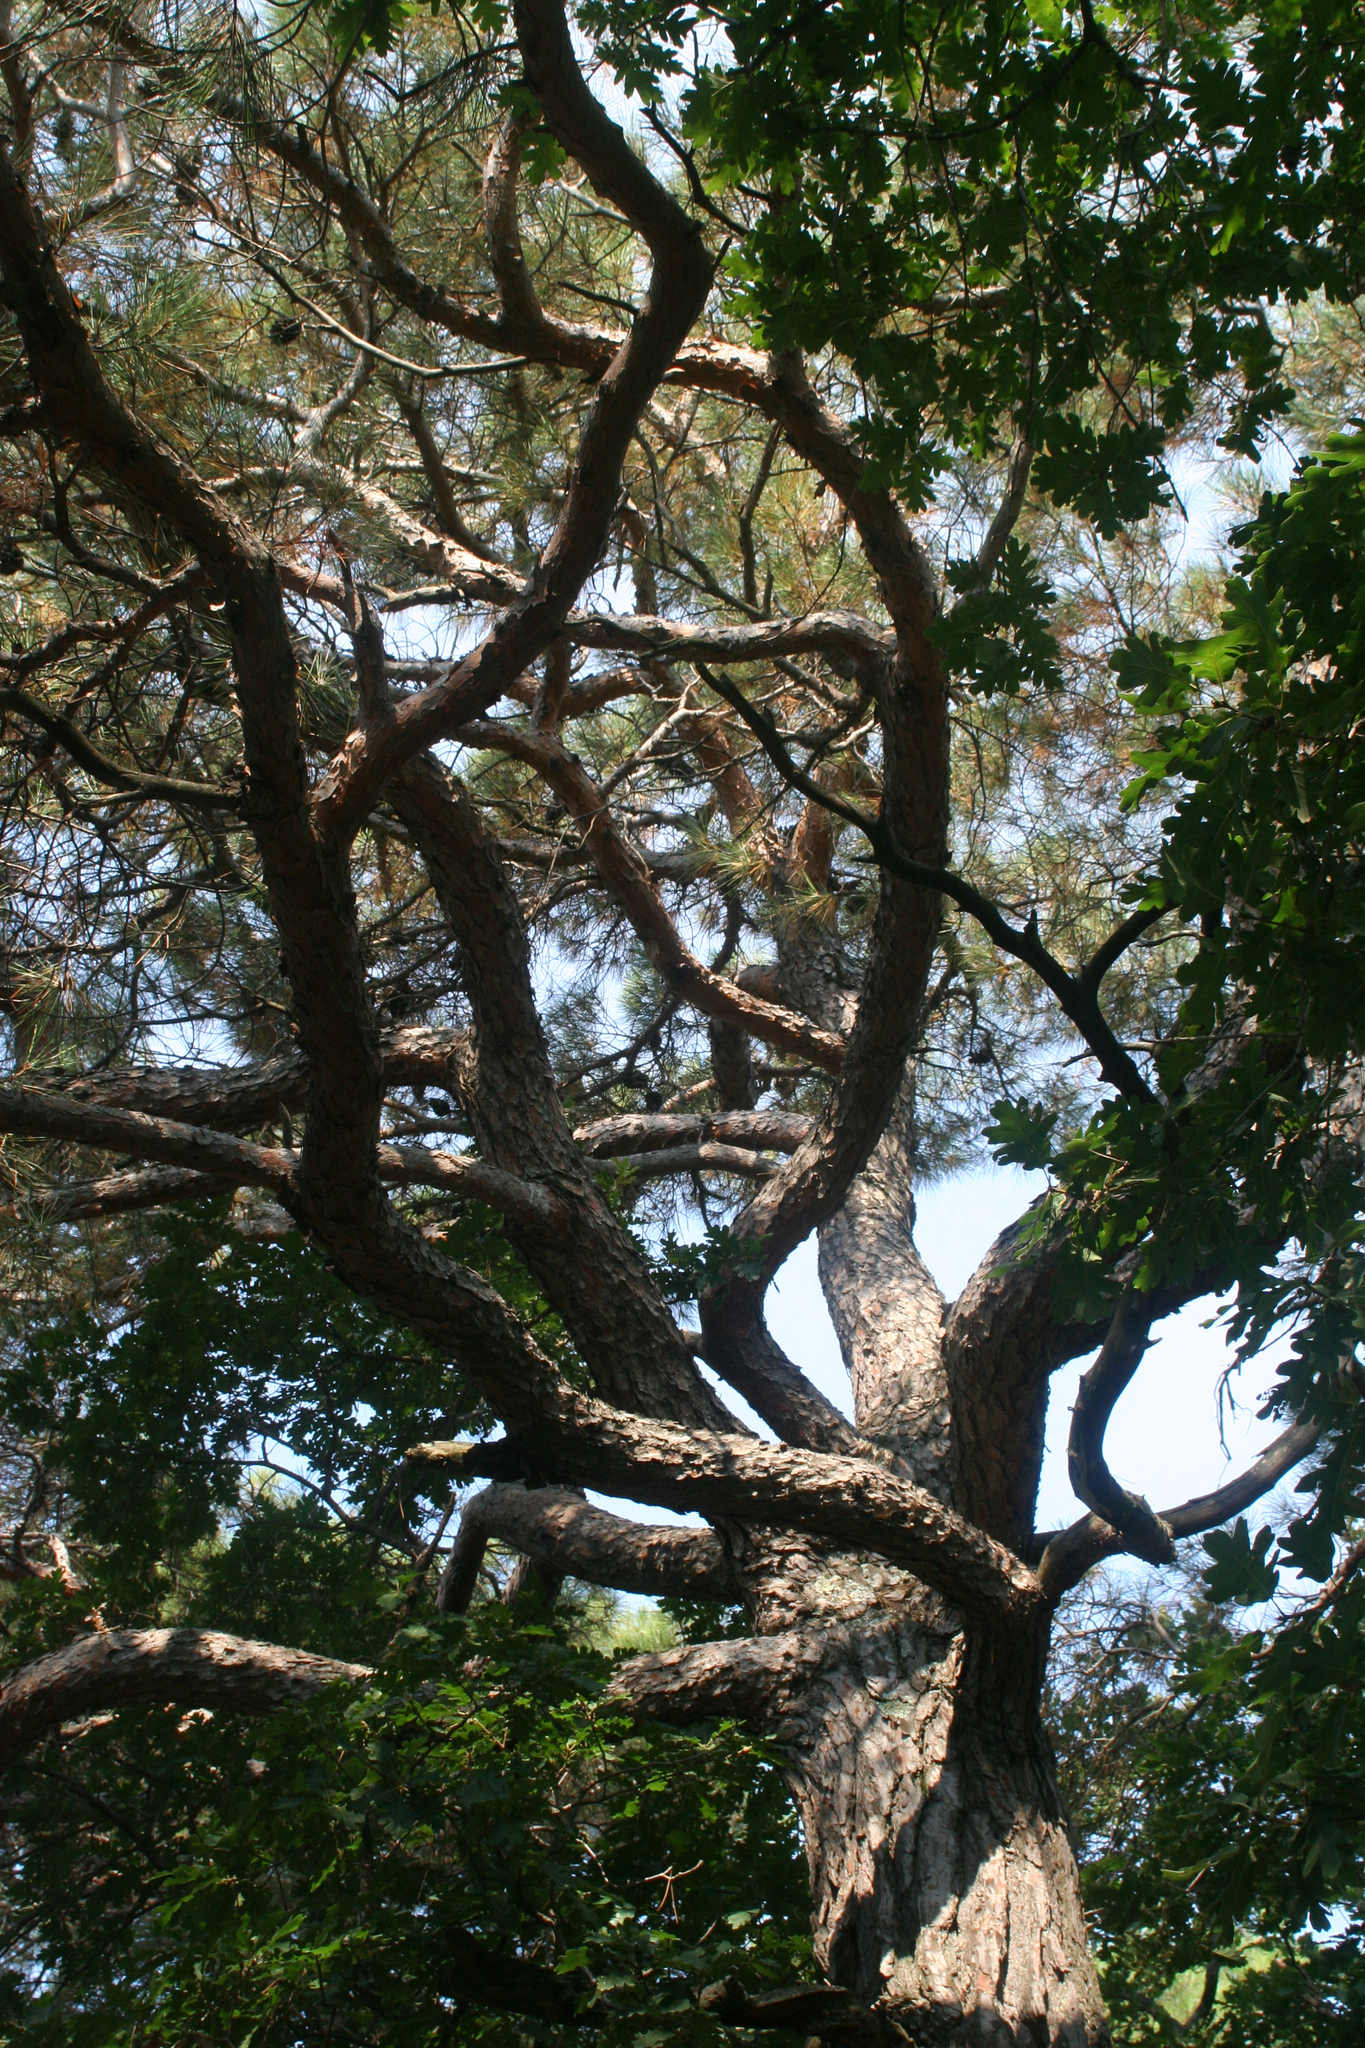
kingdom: Plantae
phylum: Tracheophyta
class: Pinopsida
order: Pinales
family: Pinaceae
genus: Pinus
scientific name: Pinus brutia
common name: Turkish pine
